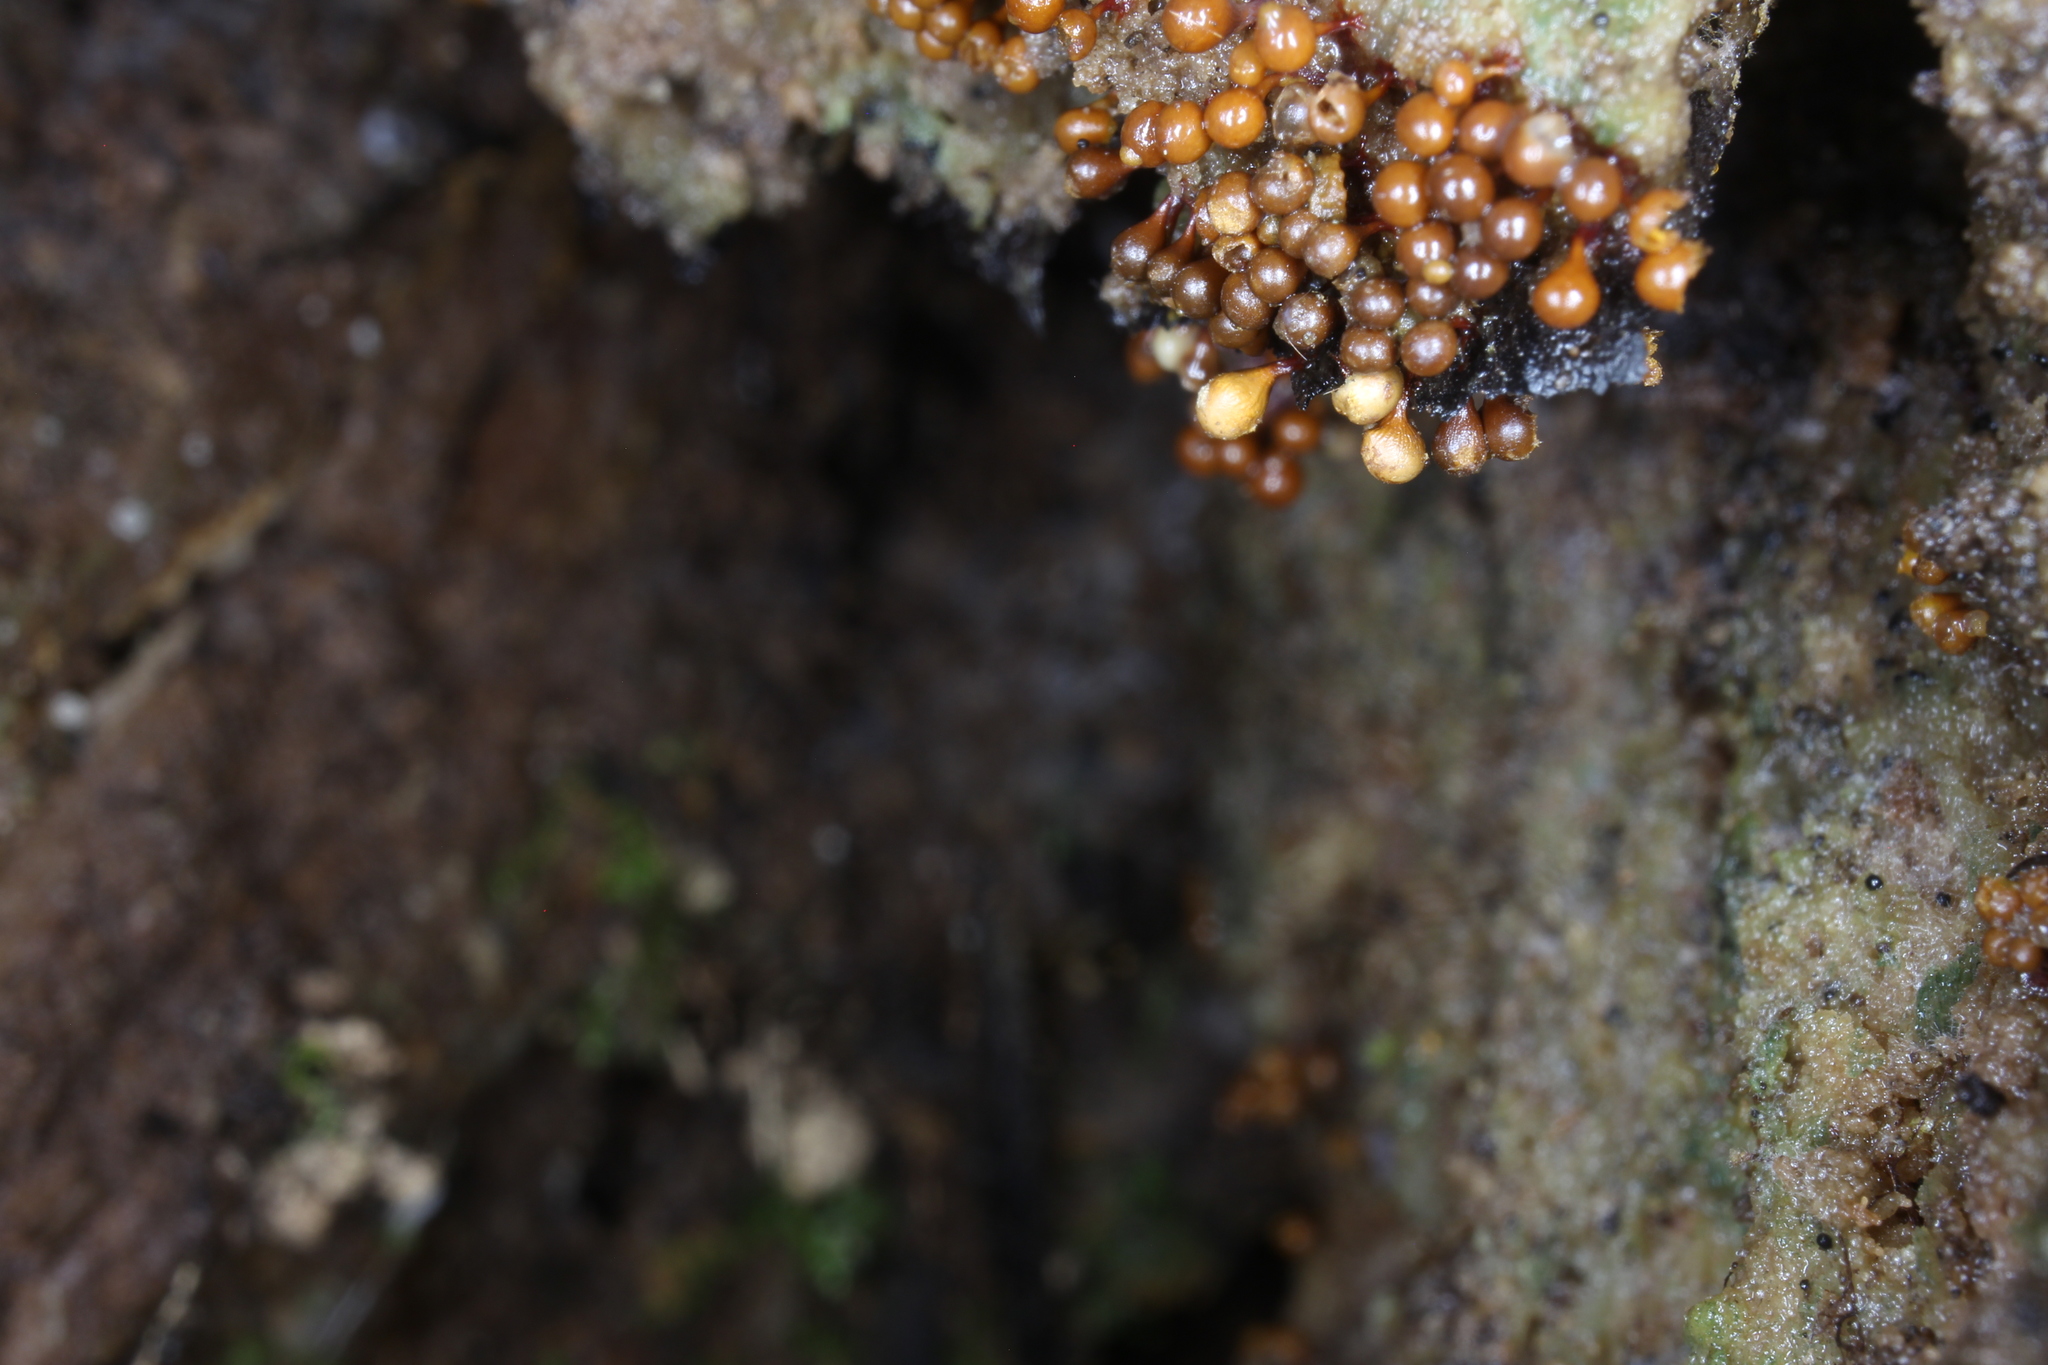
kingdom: Protozoa
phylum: Mycetozoa
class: Myxomycetes
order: Trichiales
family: Arcyriaceae
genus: Hemitrichia
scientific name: Hemitrichia clavata
